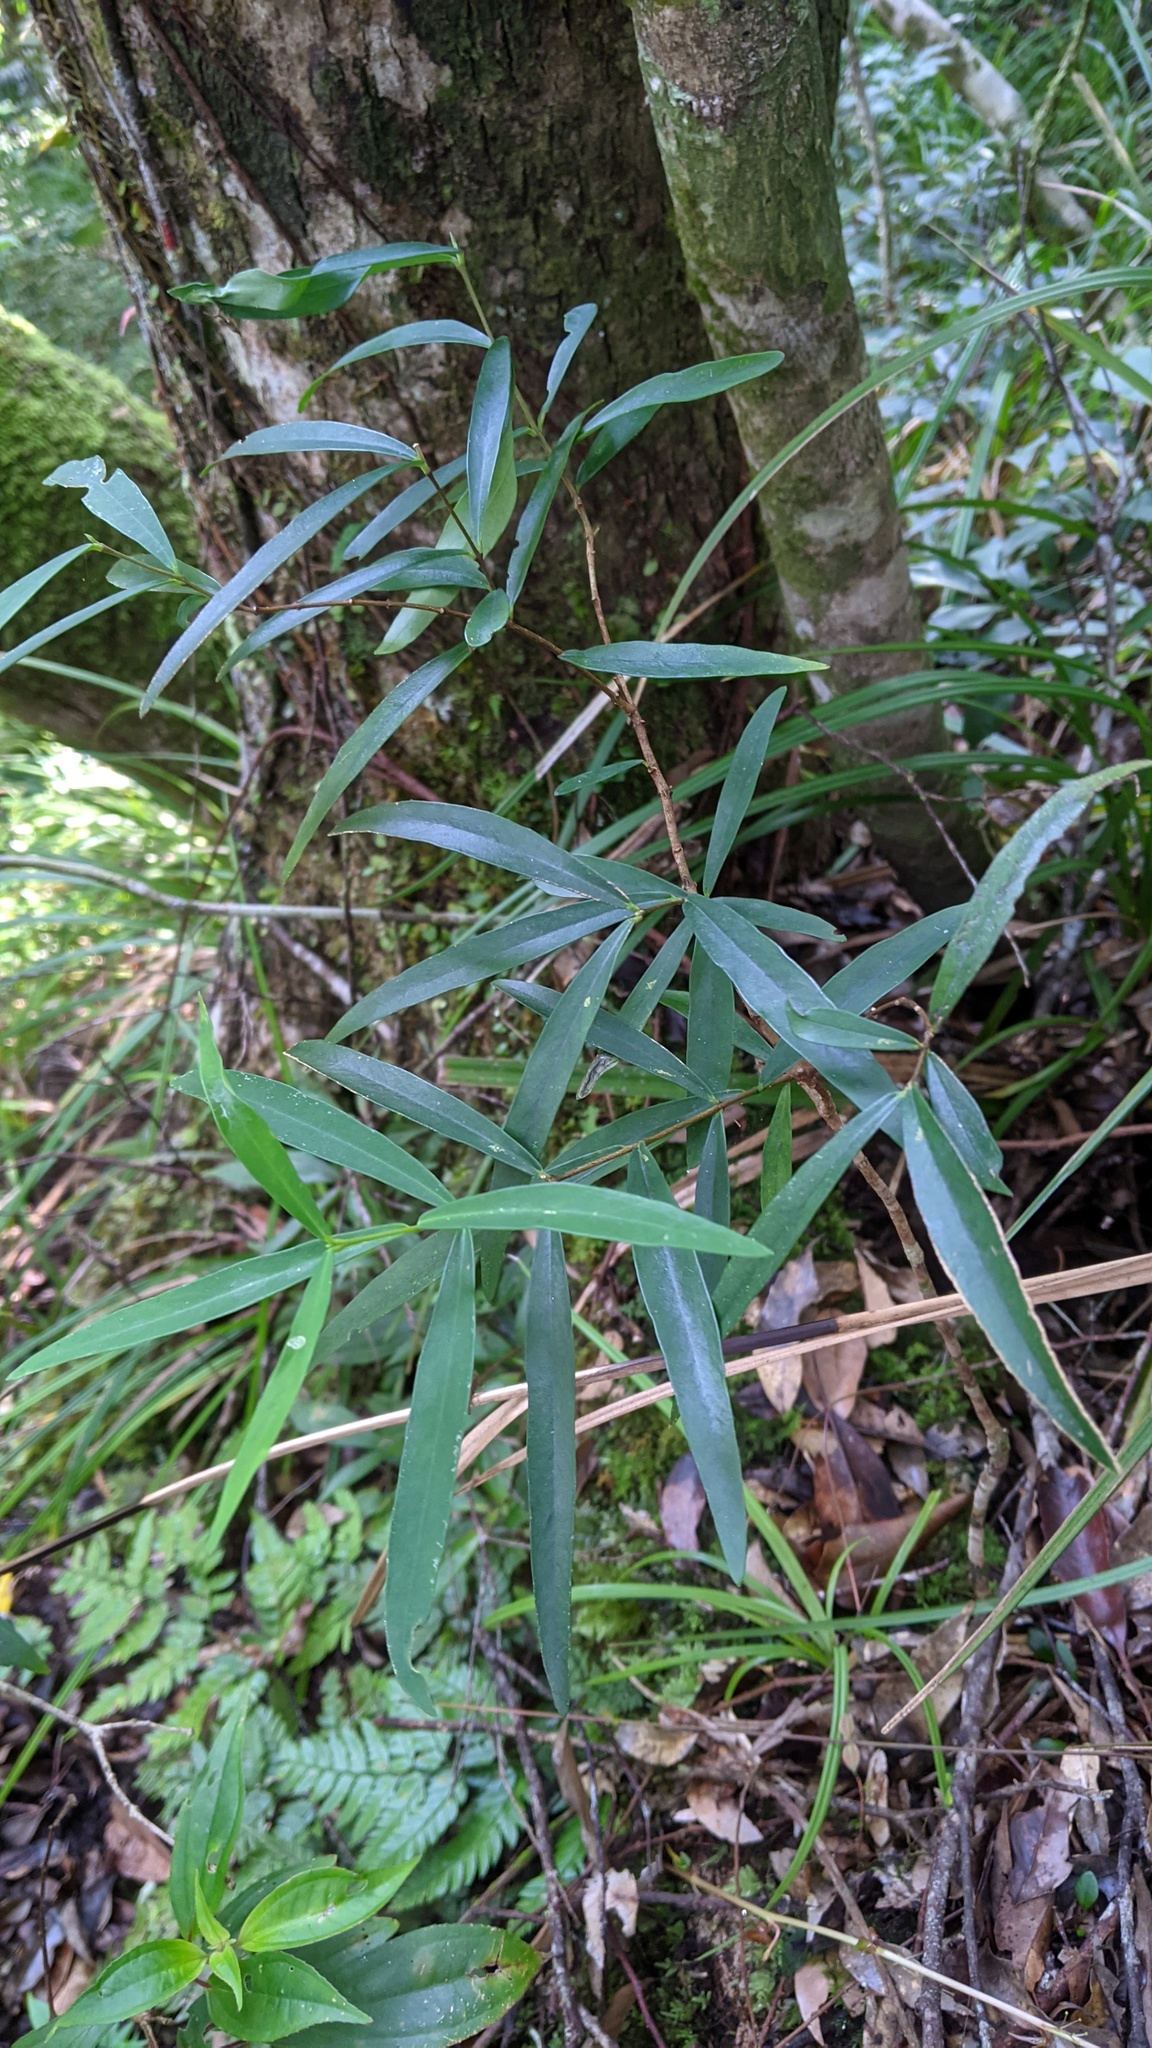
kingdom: Plantae
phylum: Tracheophyta
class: Magnoliopsida
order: Gentianales
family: Rubiaceae
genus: Damnacanthus
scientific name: Damnacanthus angustifolius
